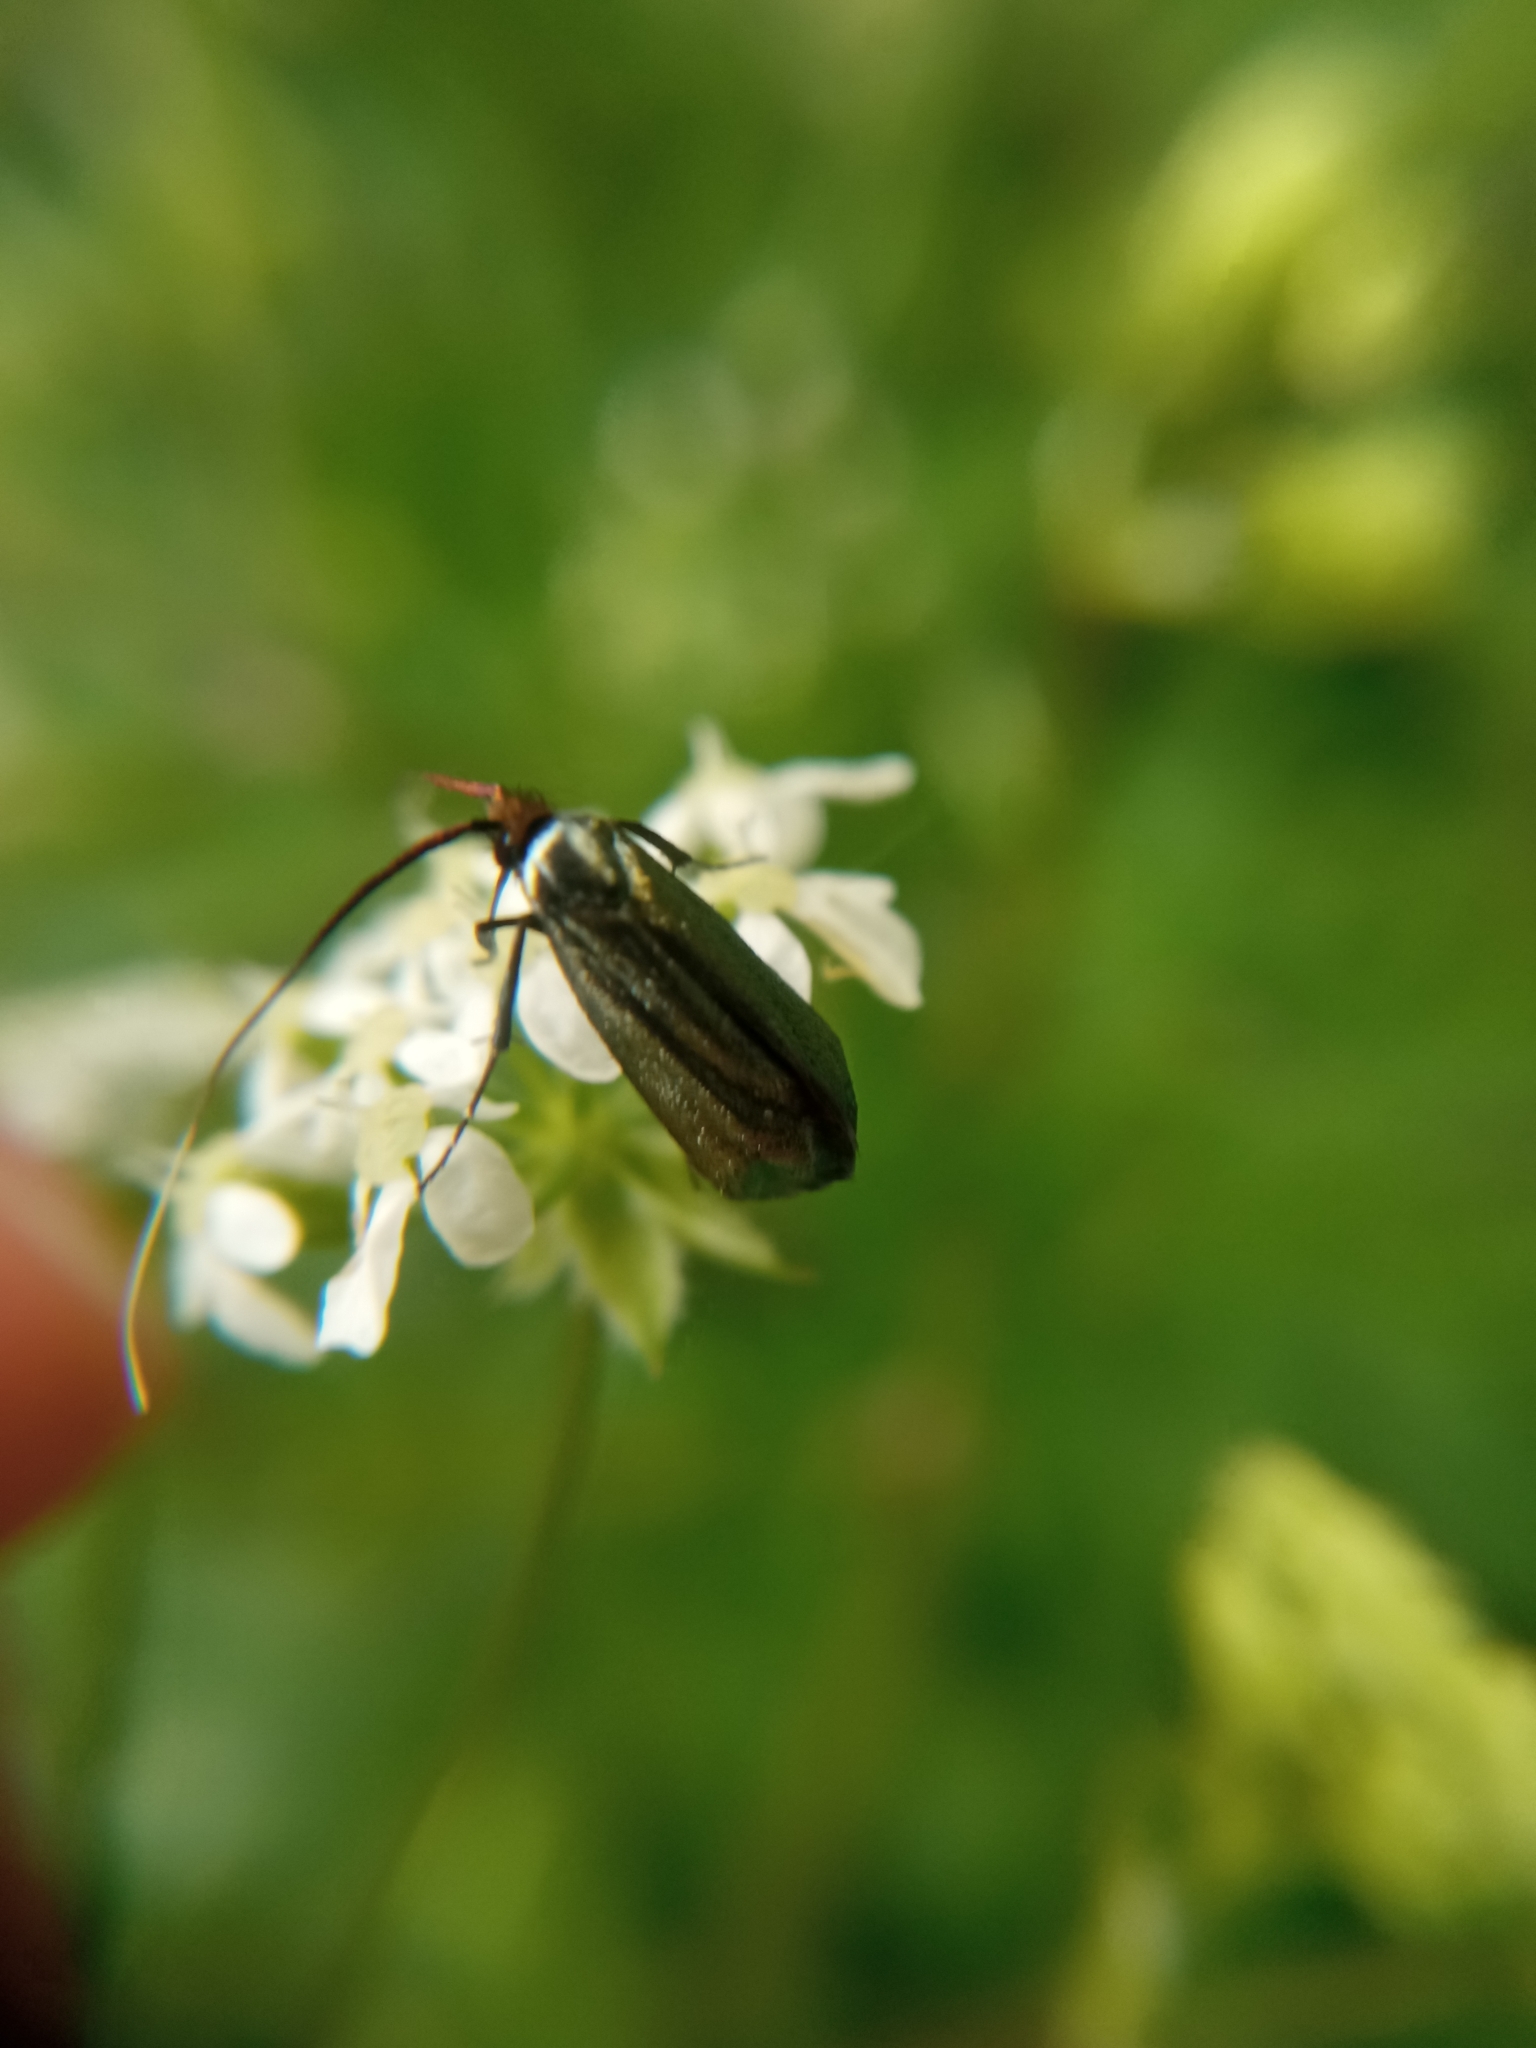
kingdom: Animalia
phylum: Arthropoda
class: Insecta
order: Lepidoptera
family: Adelidae
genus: Adela
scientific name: Adela viridella
